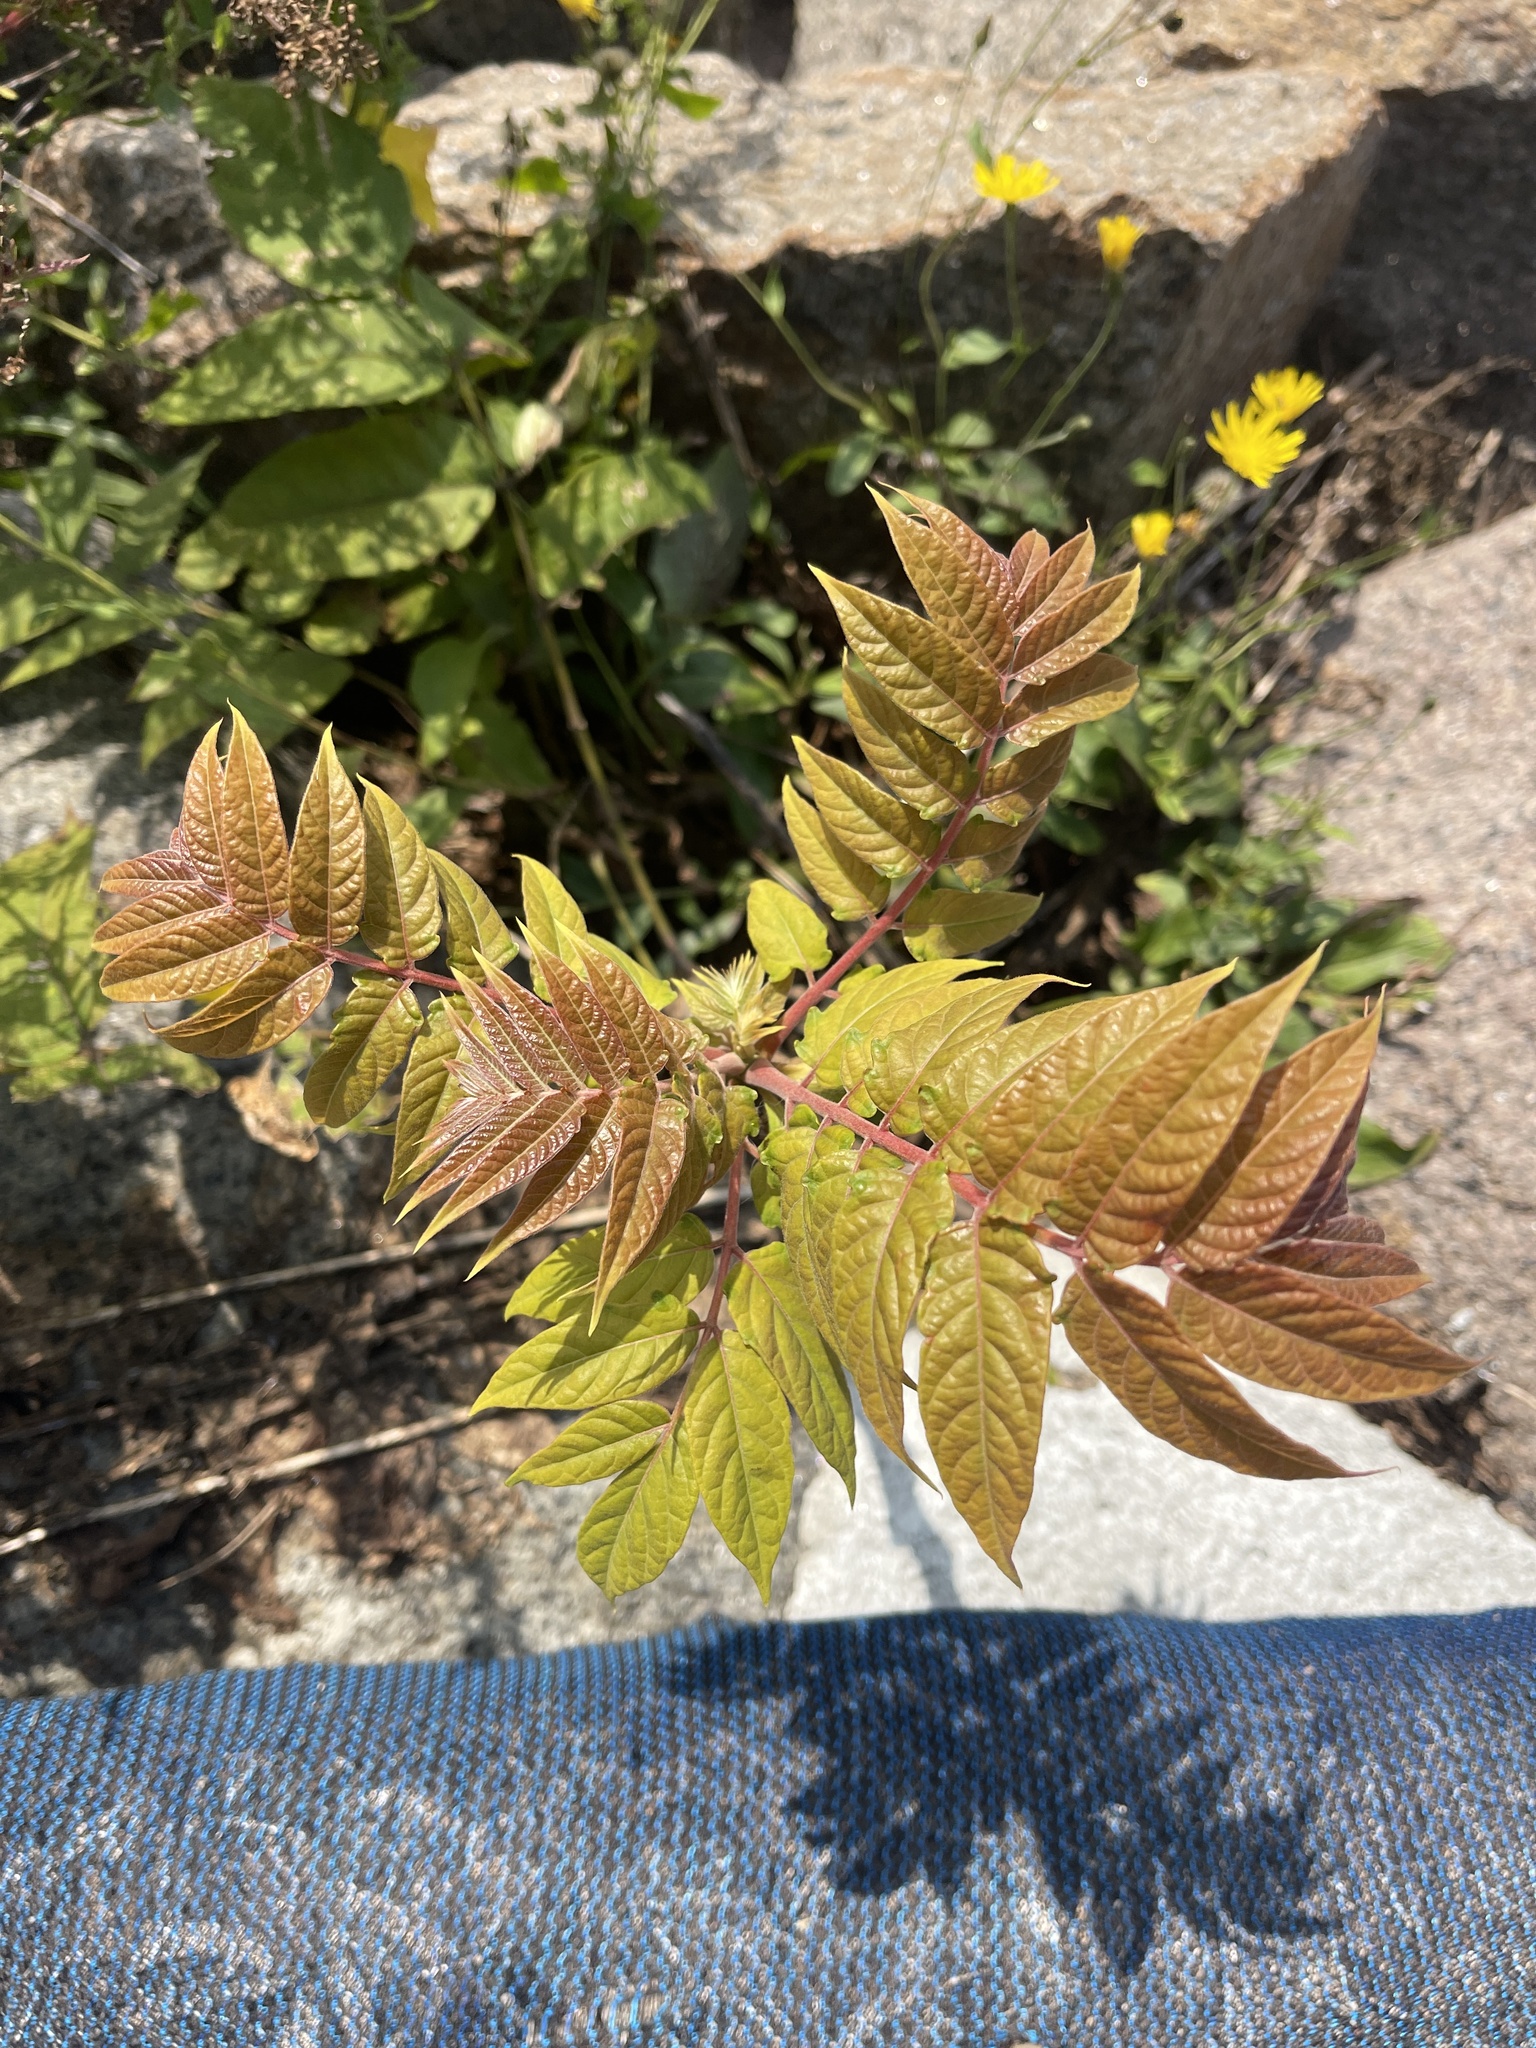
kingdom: Plantae
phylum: Tracheophyta
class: Magnoliopsida
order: Sapindales
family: Simaroubaceae
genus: Ailanthus
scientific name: Ailanthus altissima
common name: Tree-of-heaven
